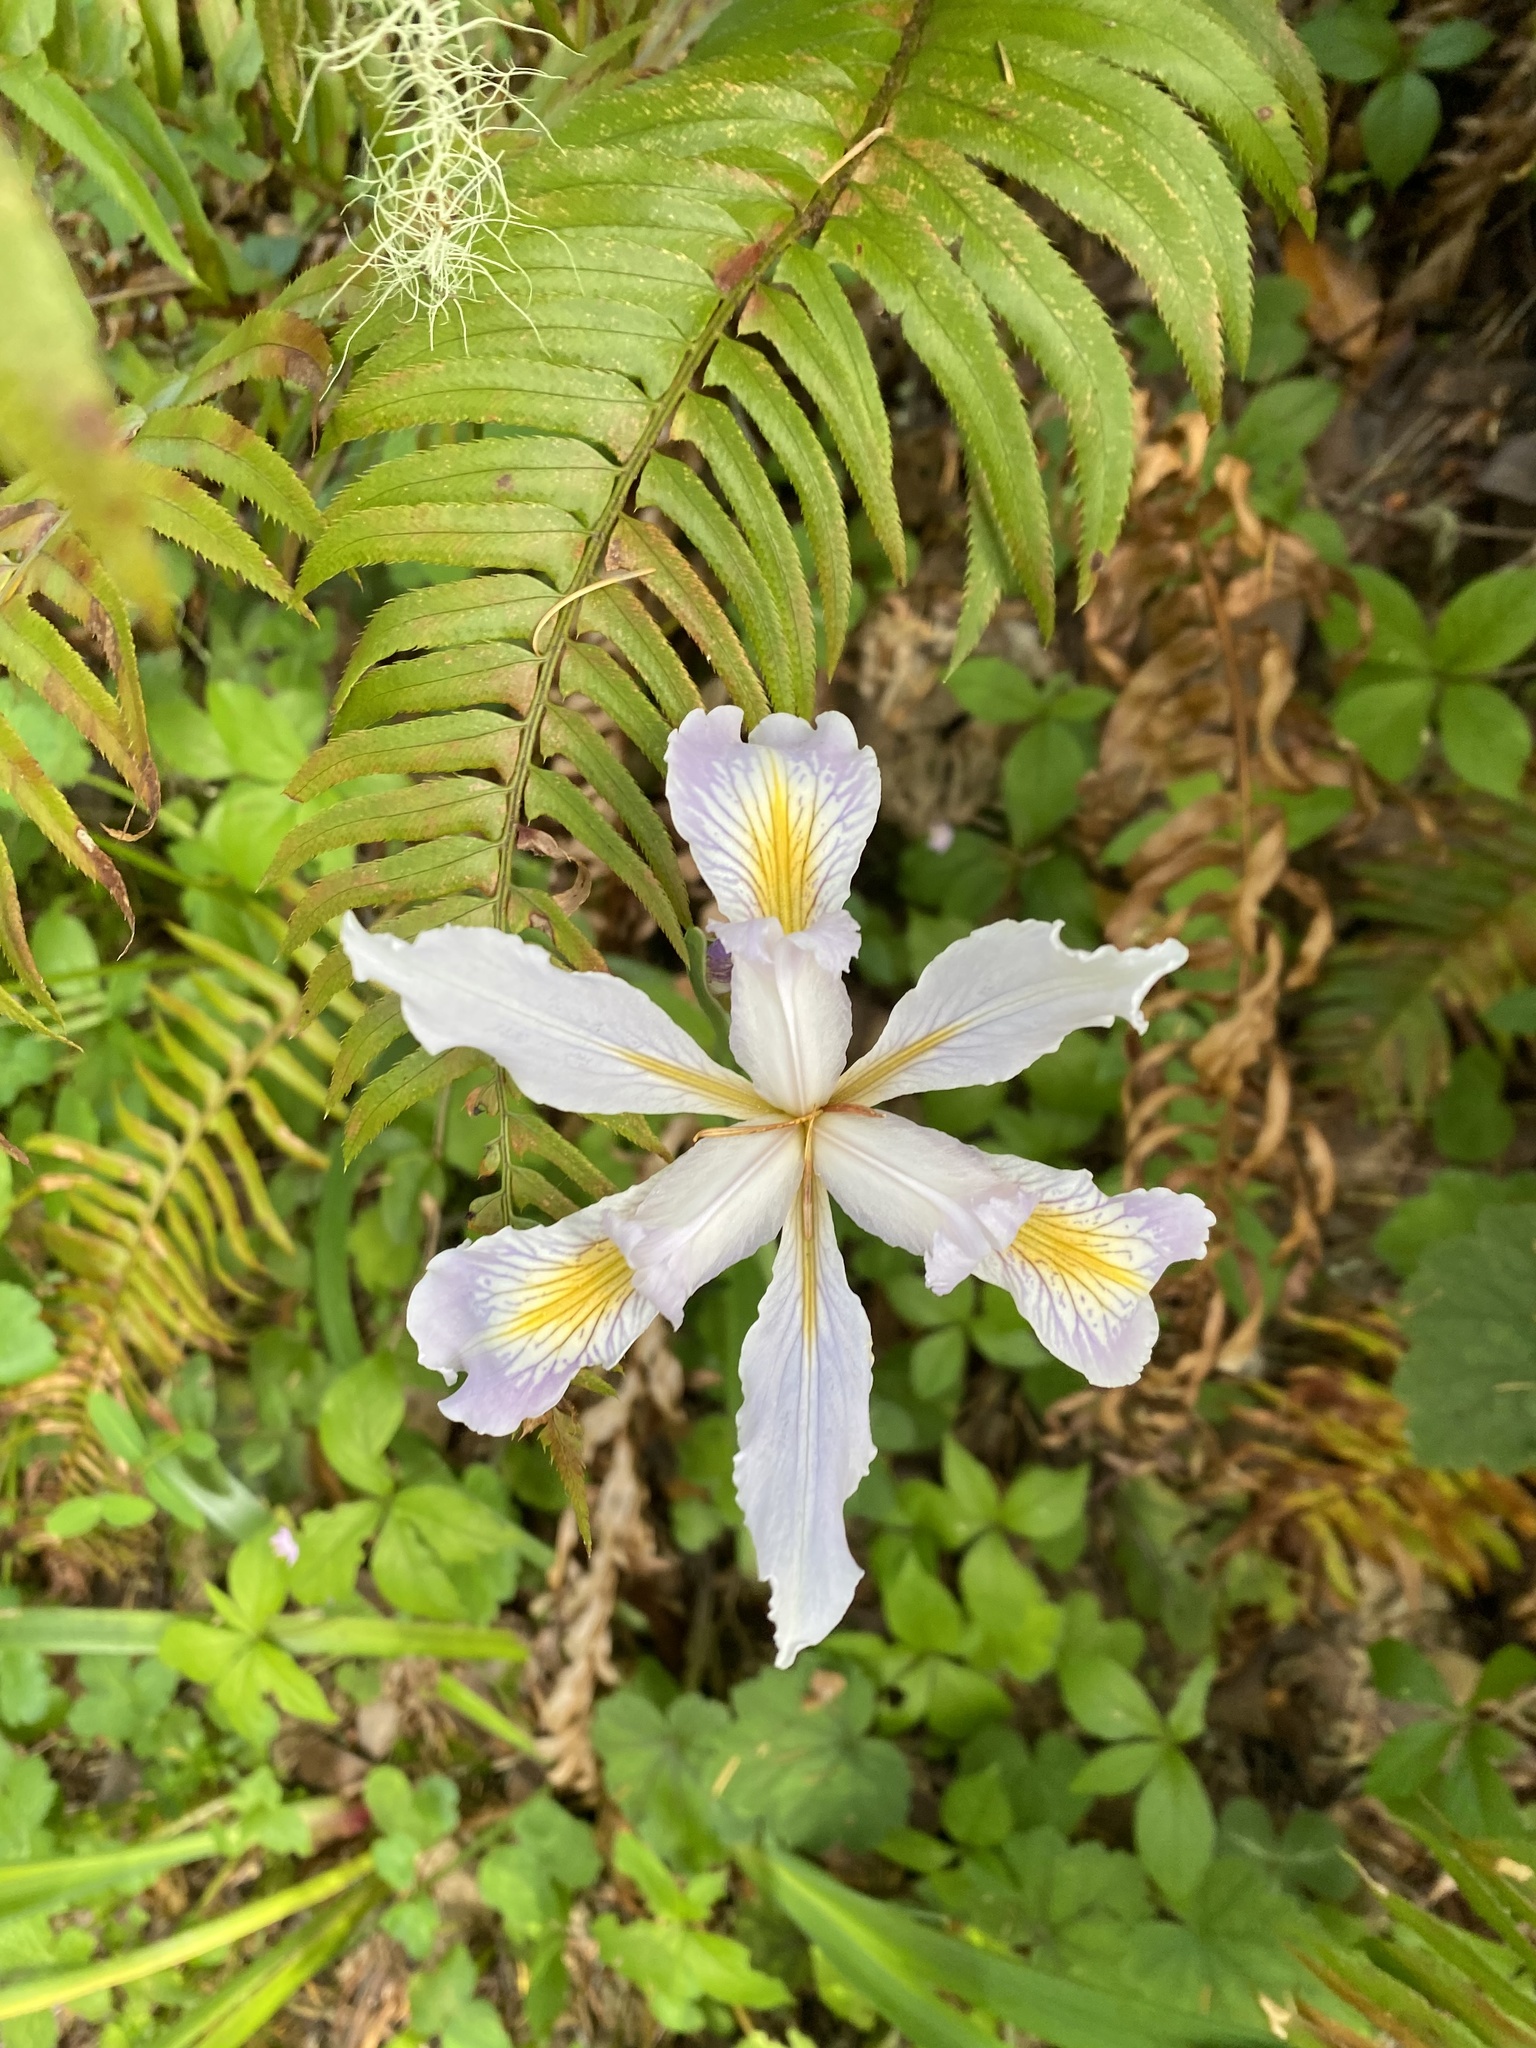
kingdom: Plantae
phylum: Tracheophyta
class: Liliopsida
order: Asparagales
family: Iridaceae
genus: Iris
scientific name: Iris douglasiana
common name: Marin iris
